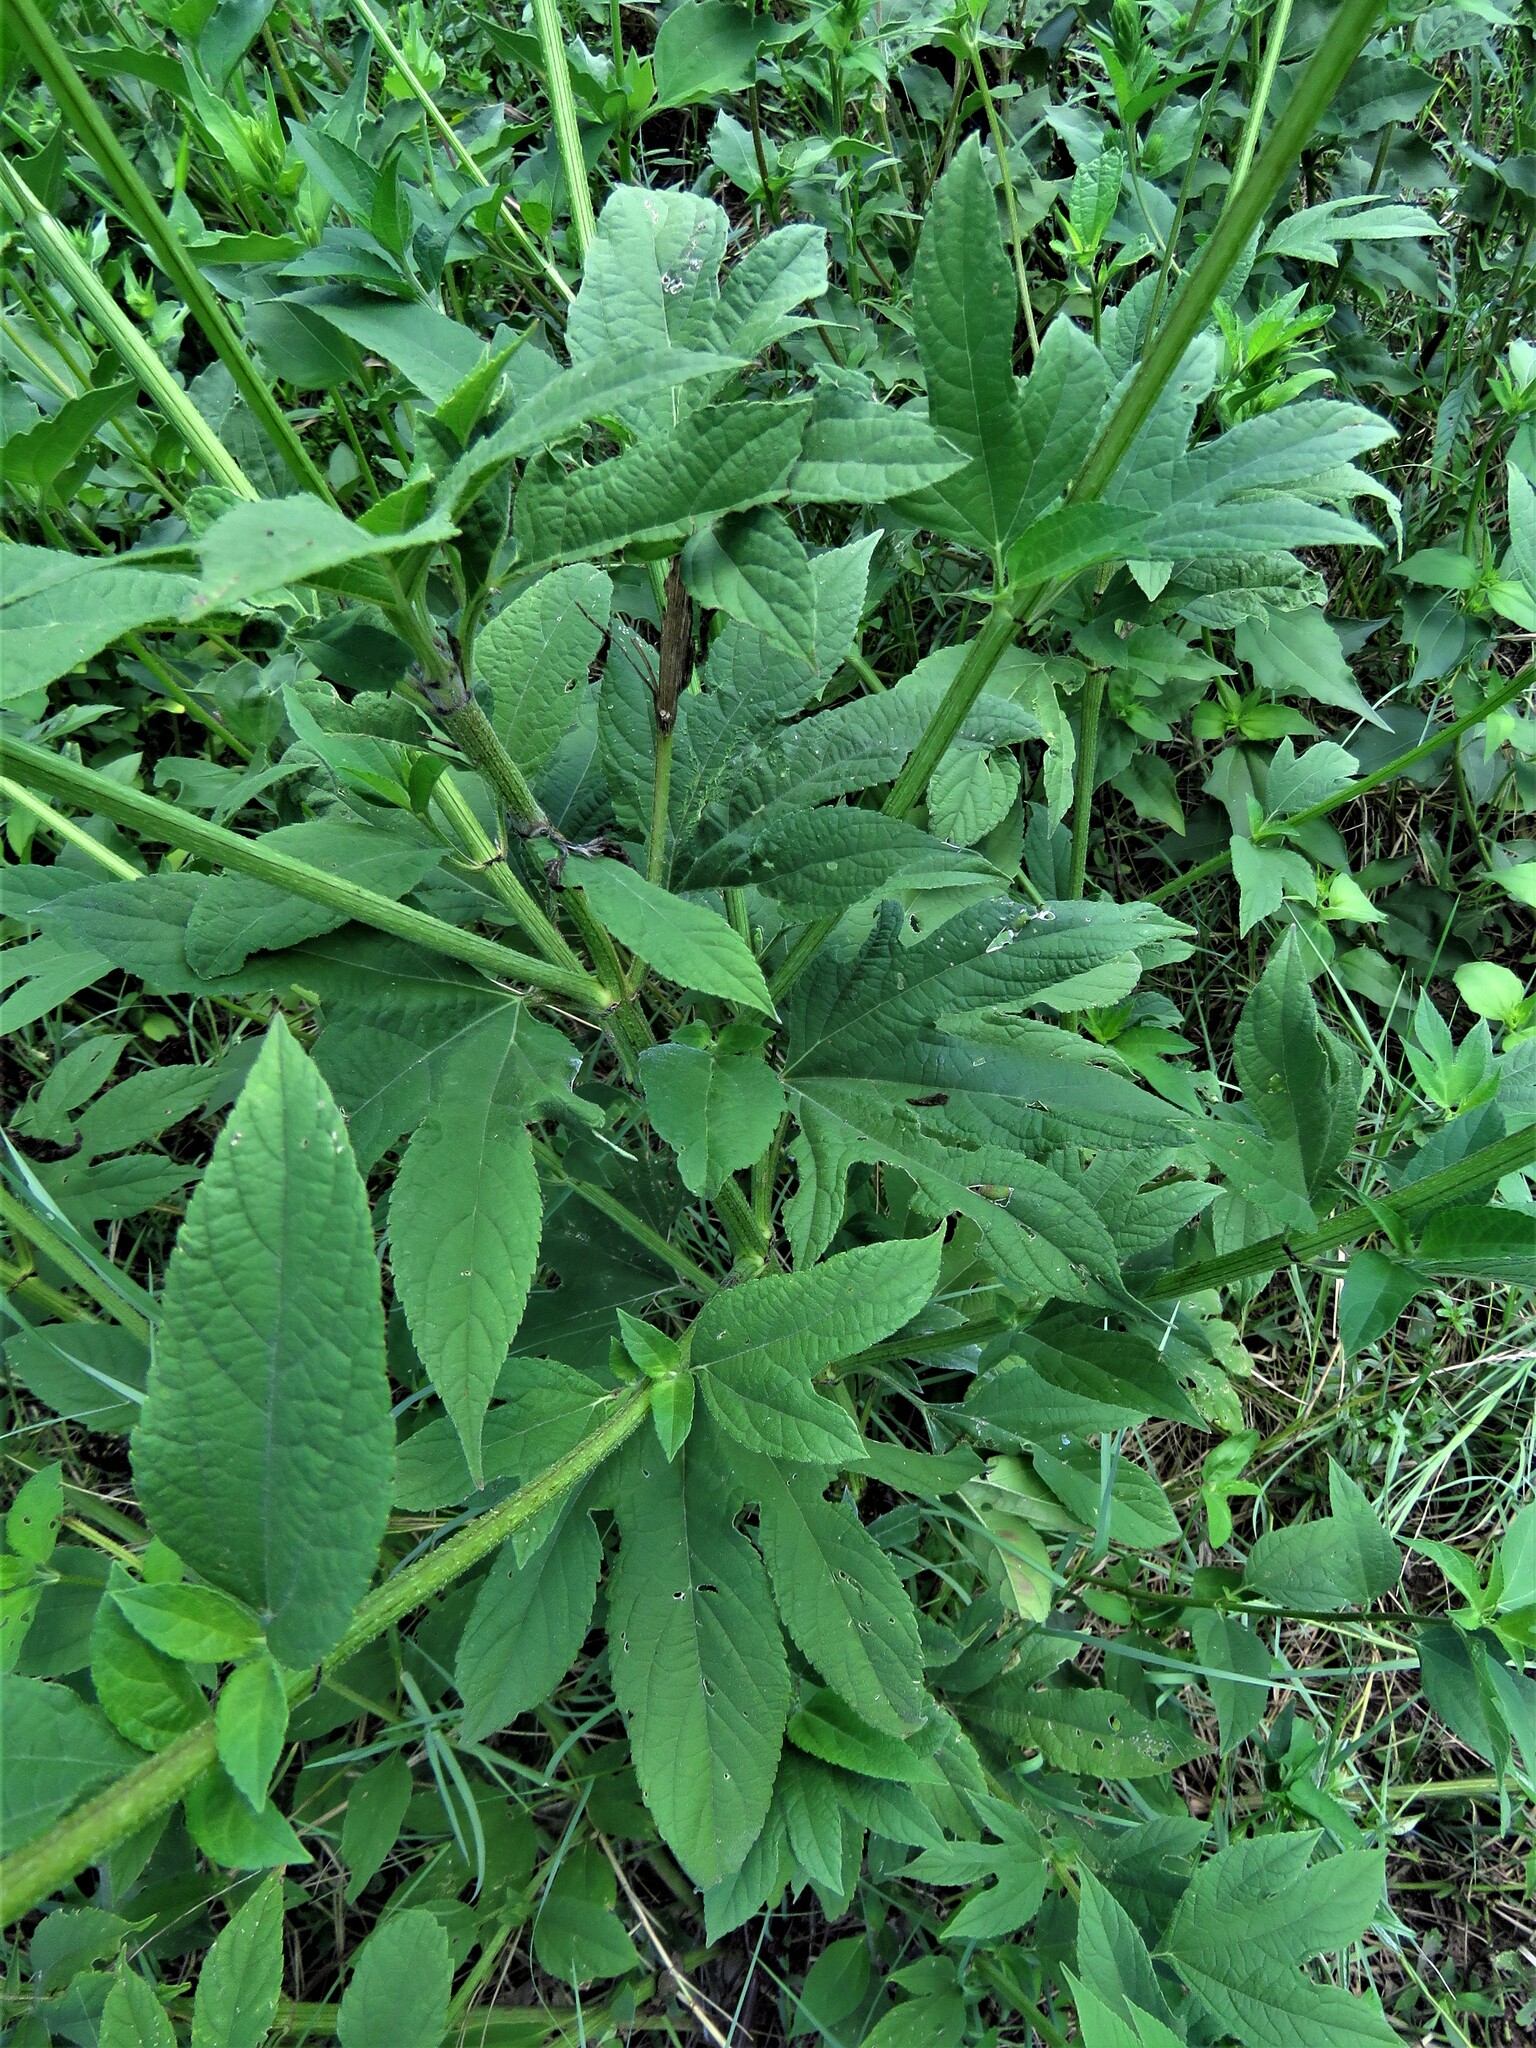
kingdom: Plantae
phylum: Tracheophyta
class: Magnoliopsida
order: Asterales
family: Asteraceae
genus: Ambrosia
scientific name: Ambrosia trifida
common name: Giant ragweed
